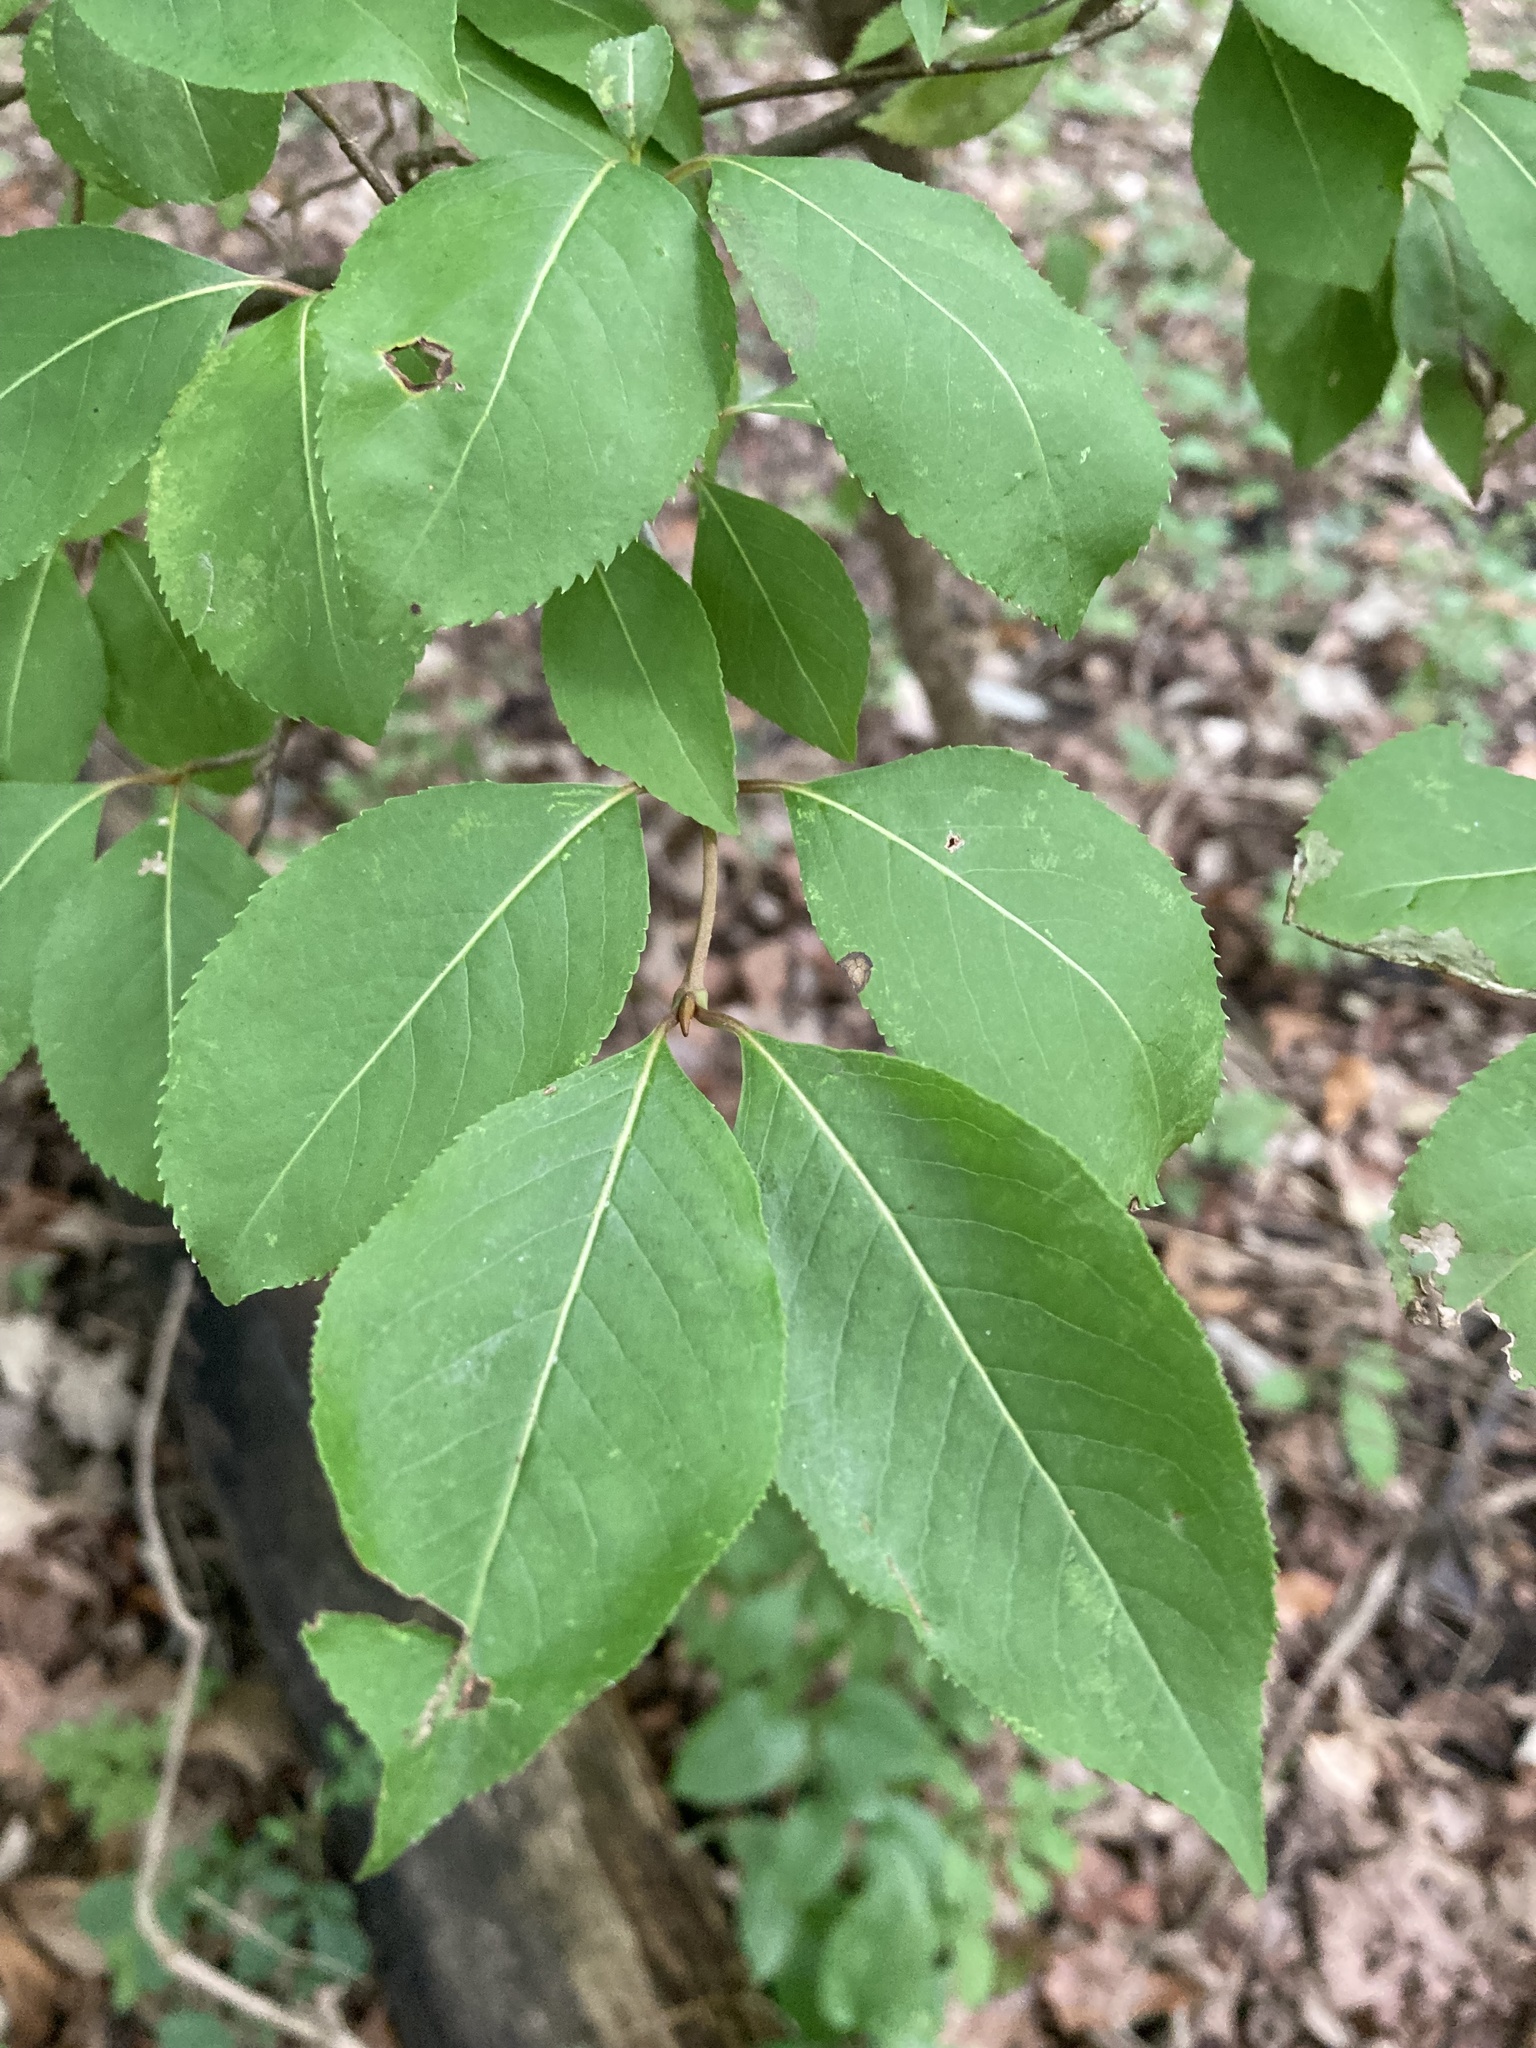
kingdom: Plantae
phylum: Tracheophyta
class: Magnoliopsida
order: Dipsacales
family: Viburnaceae
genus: Viburnum
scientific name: Viburnum prunifolium
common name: Black haw
